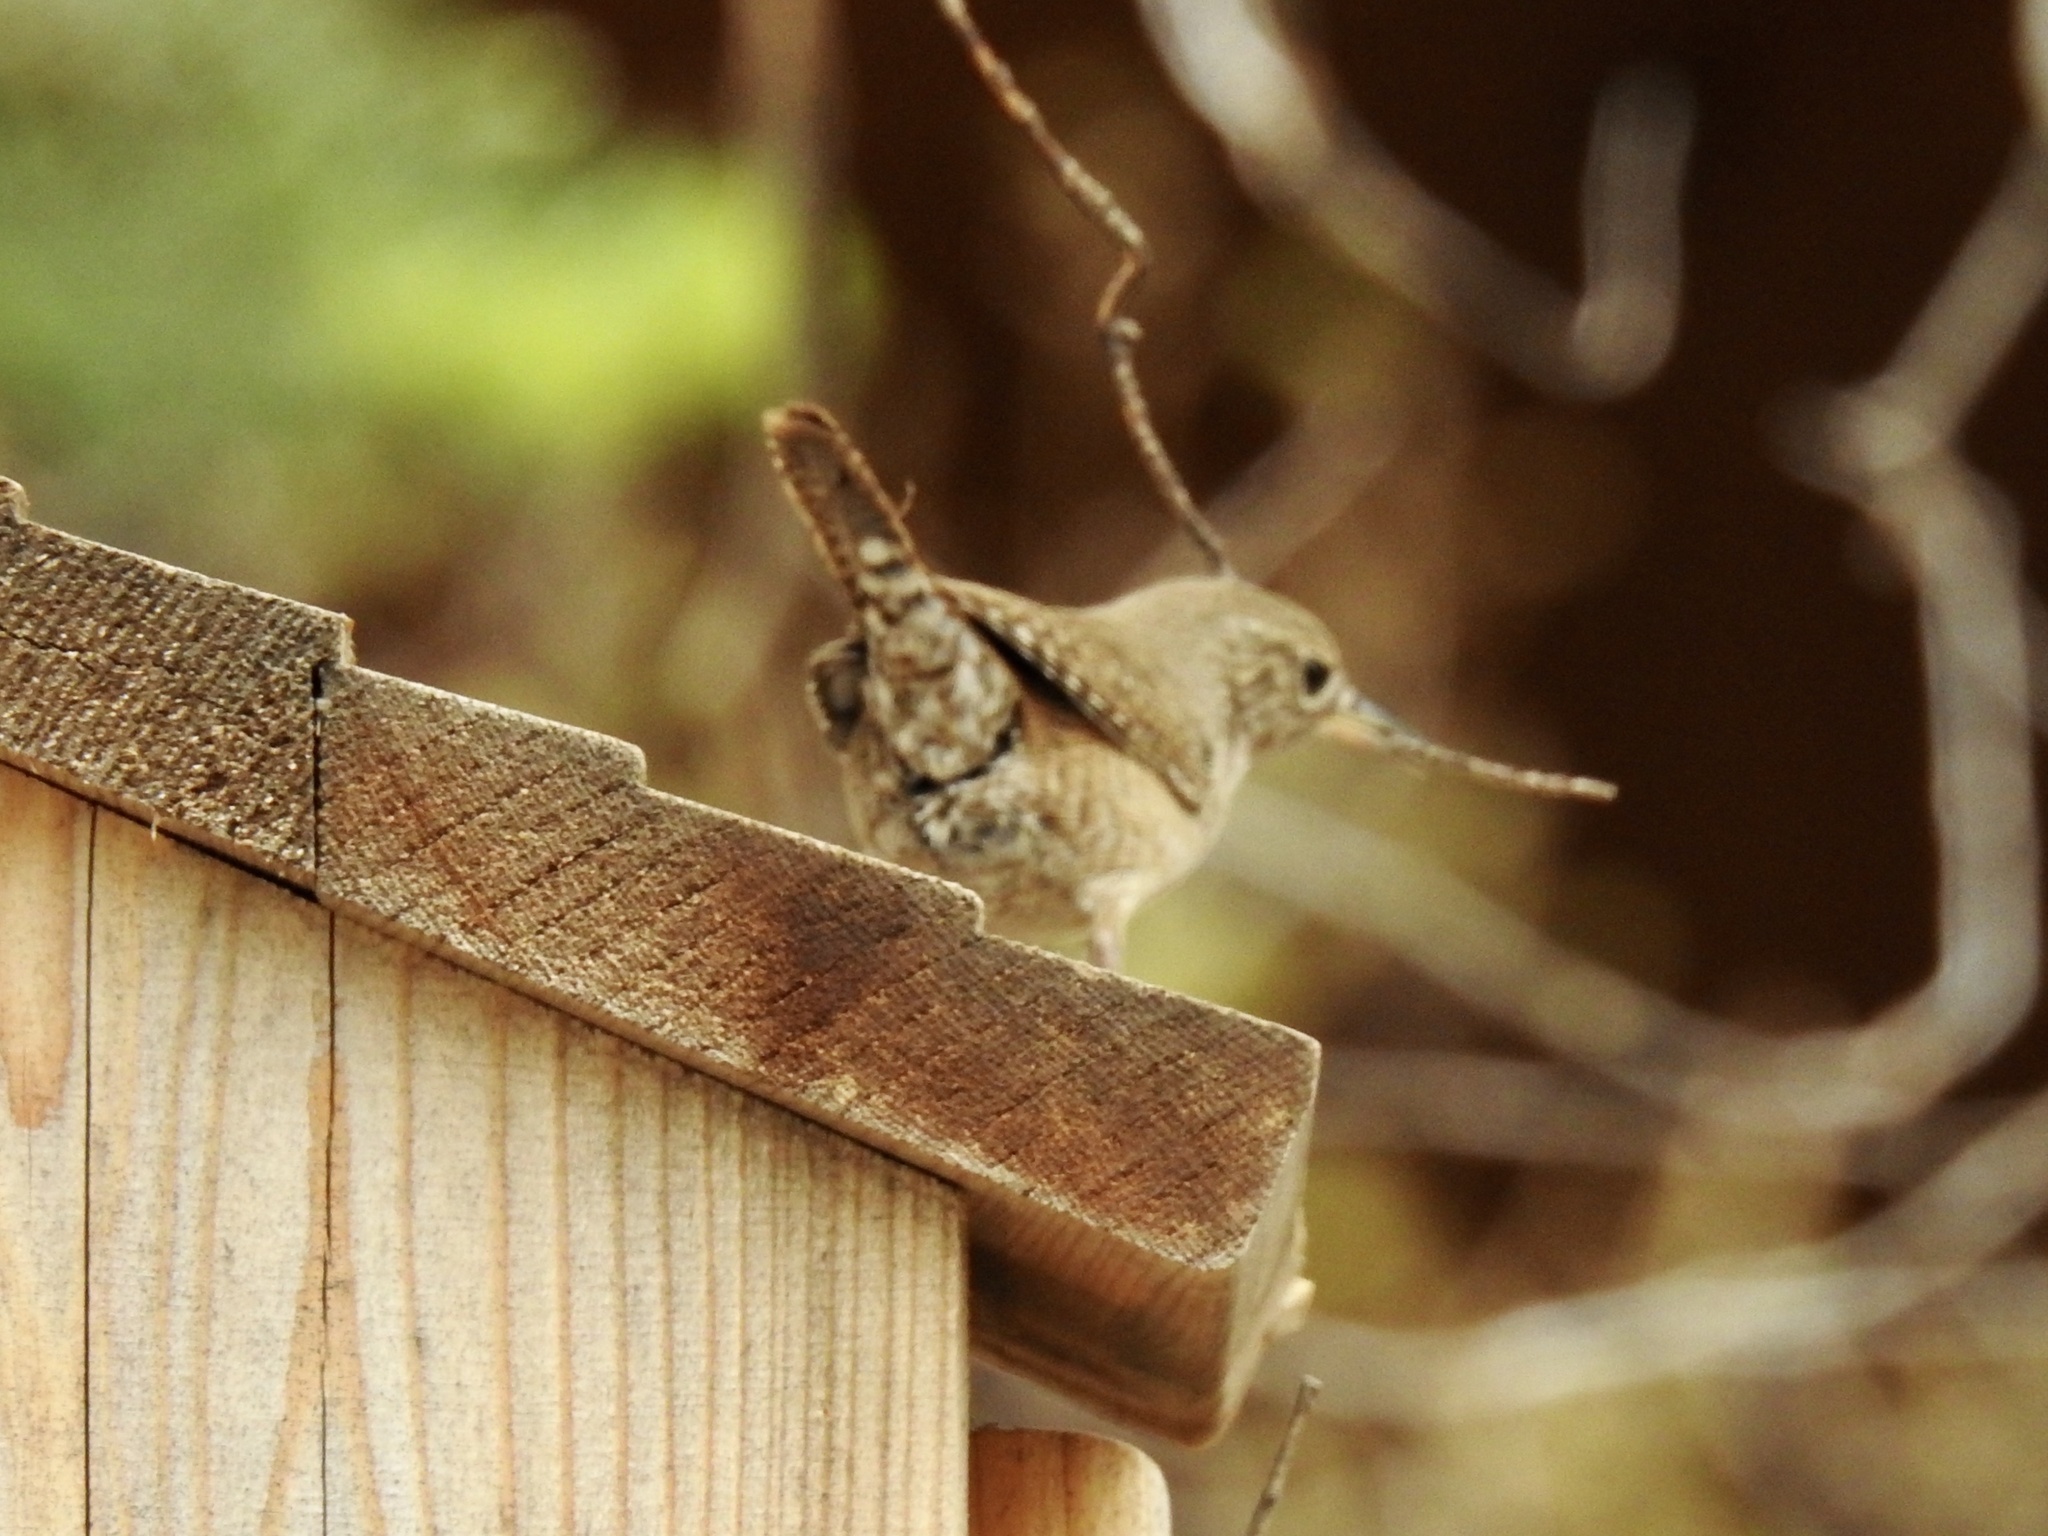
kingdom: Animalia
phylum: Chordata
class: Aves
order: Passeriformes
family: Troglodytidae
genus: Troglodytes
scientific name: Troglodytes aedon
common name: House wren
